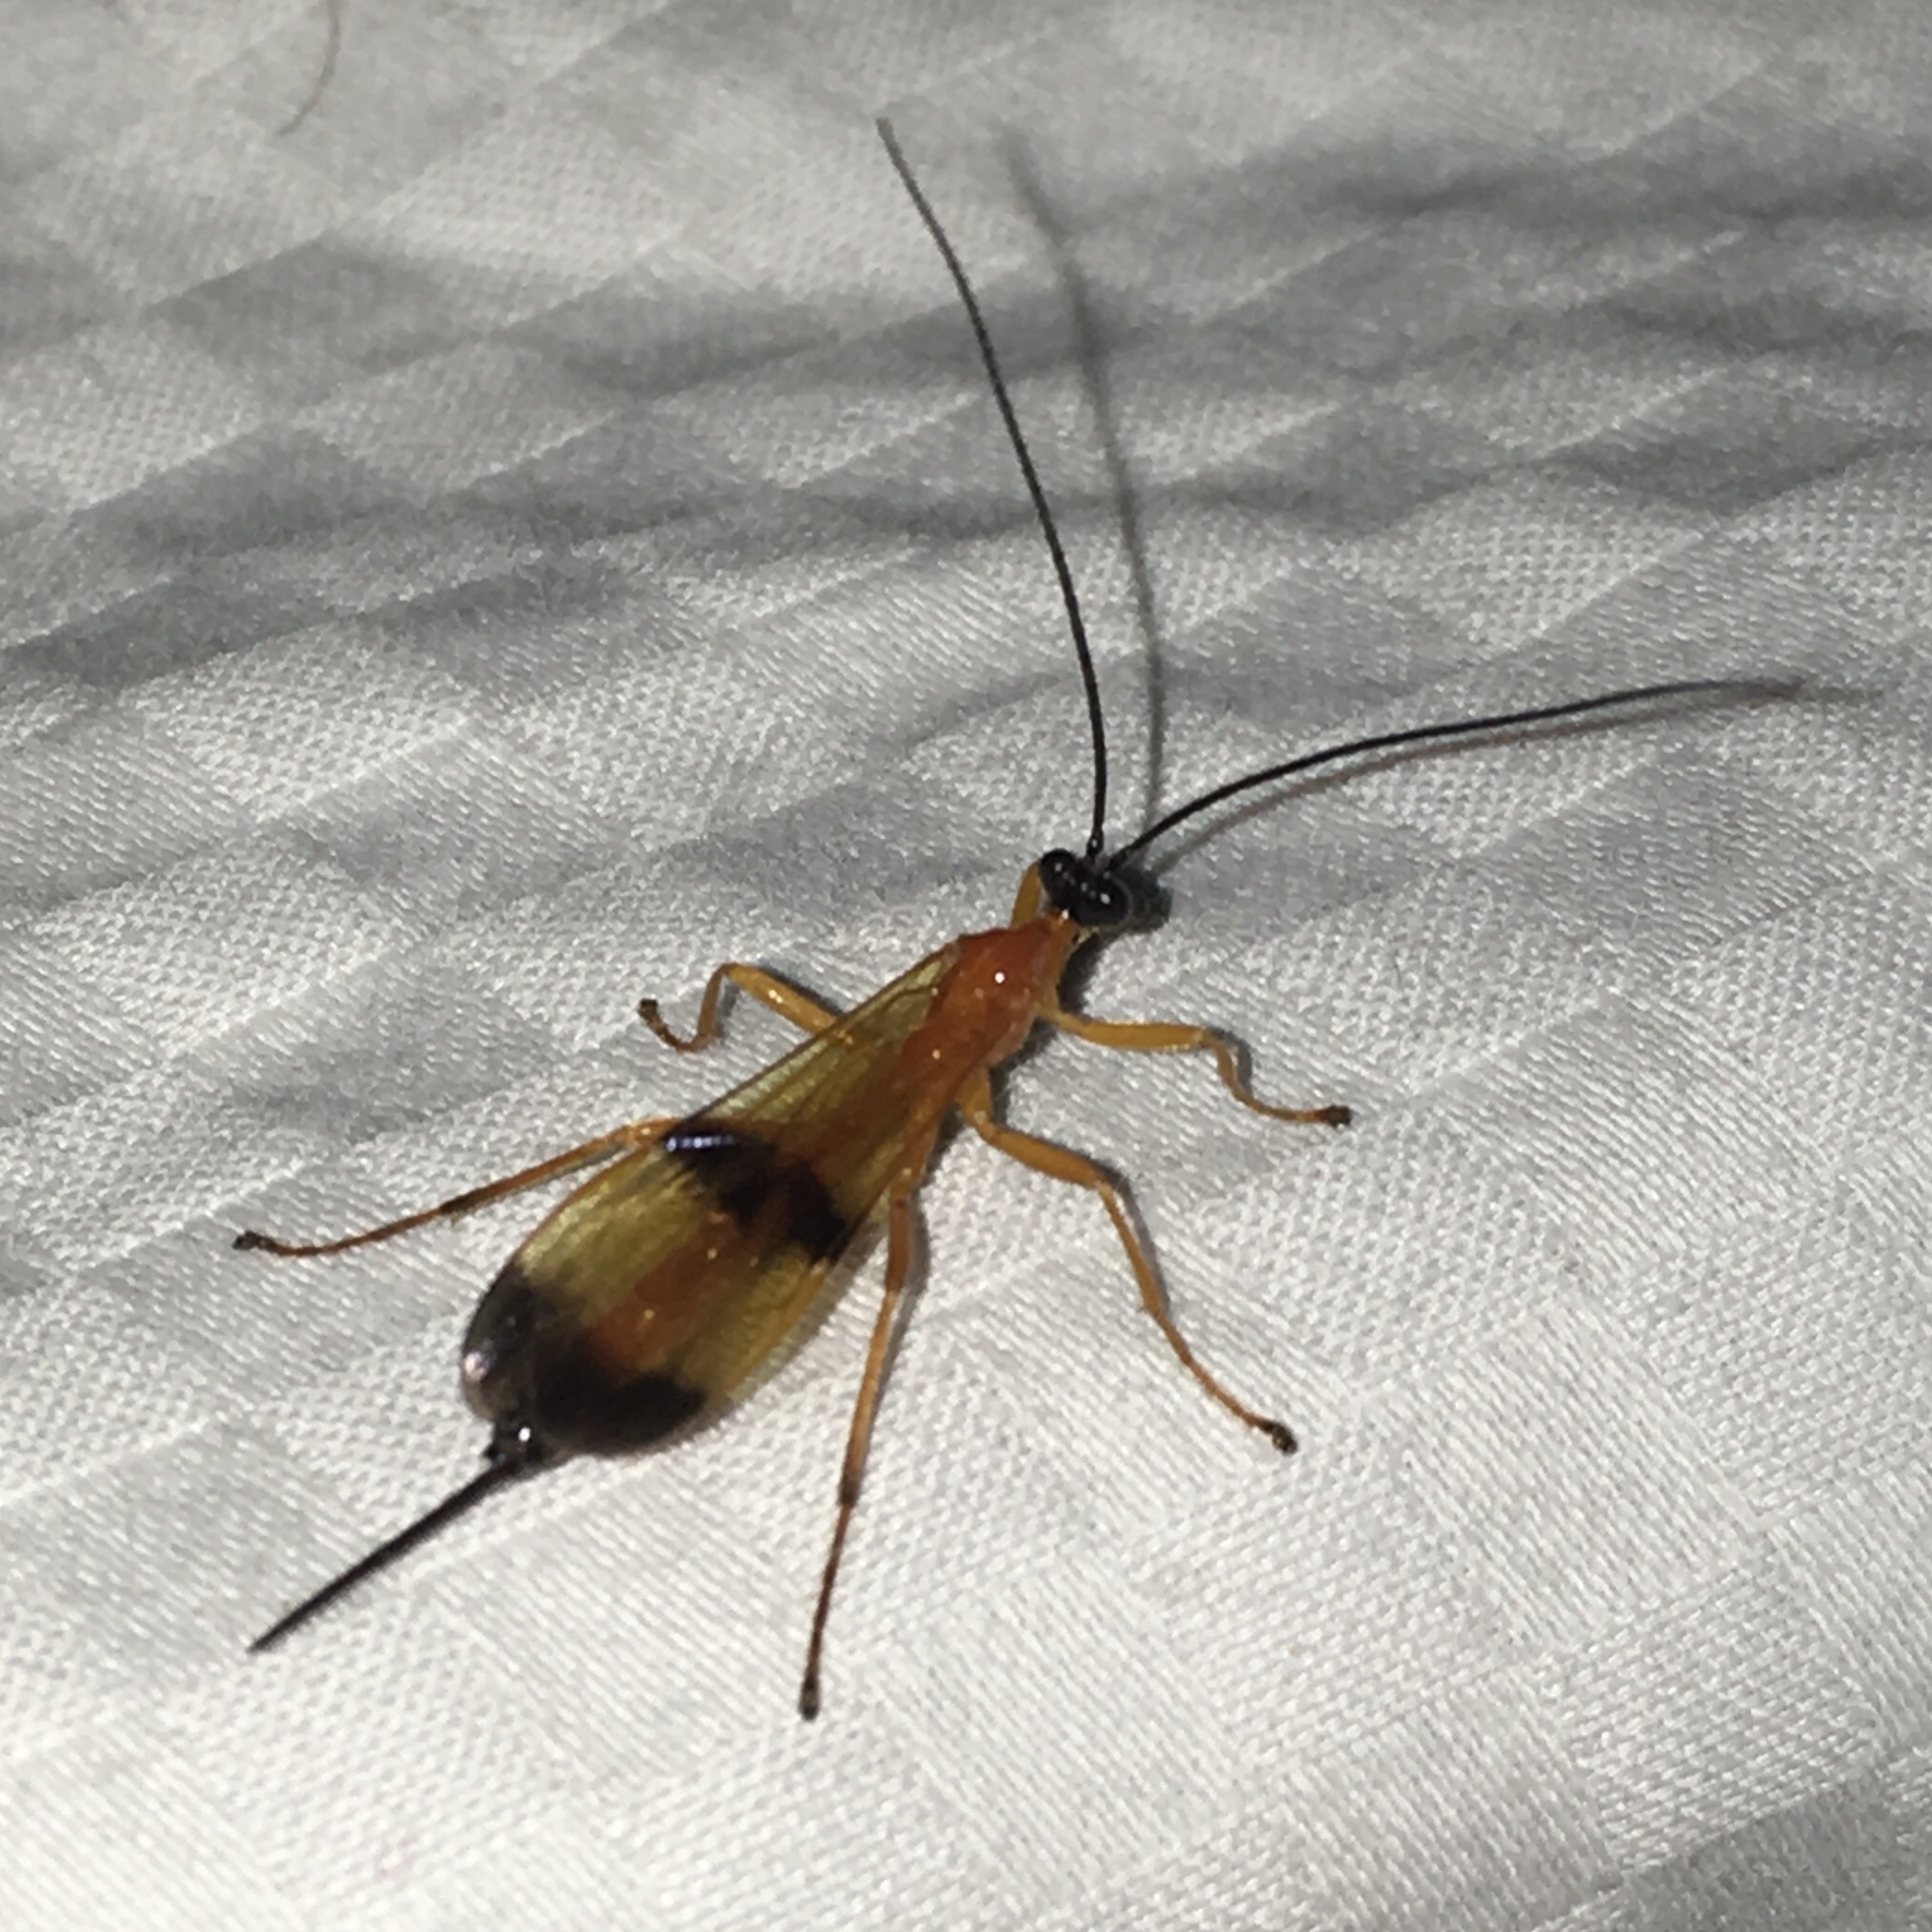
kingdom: Animalia
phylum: Arthropoda
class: Insecta
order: Hymenoptera
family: Ichneumonidae
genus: Acrotaphus
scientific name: Acrotaphus wiltii
